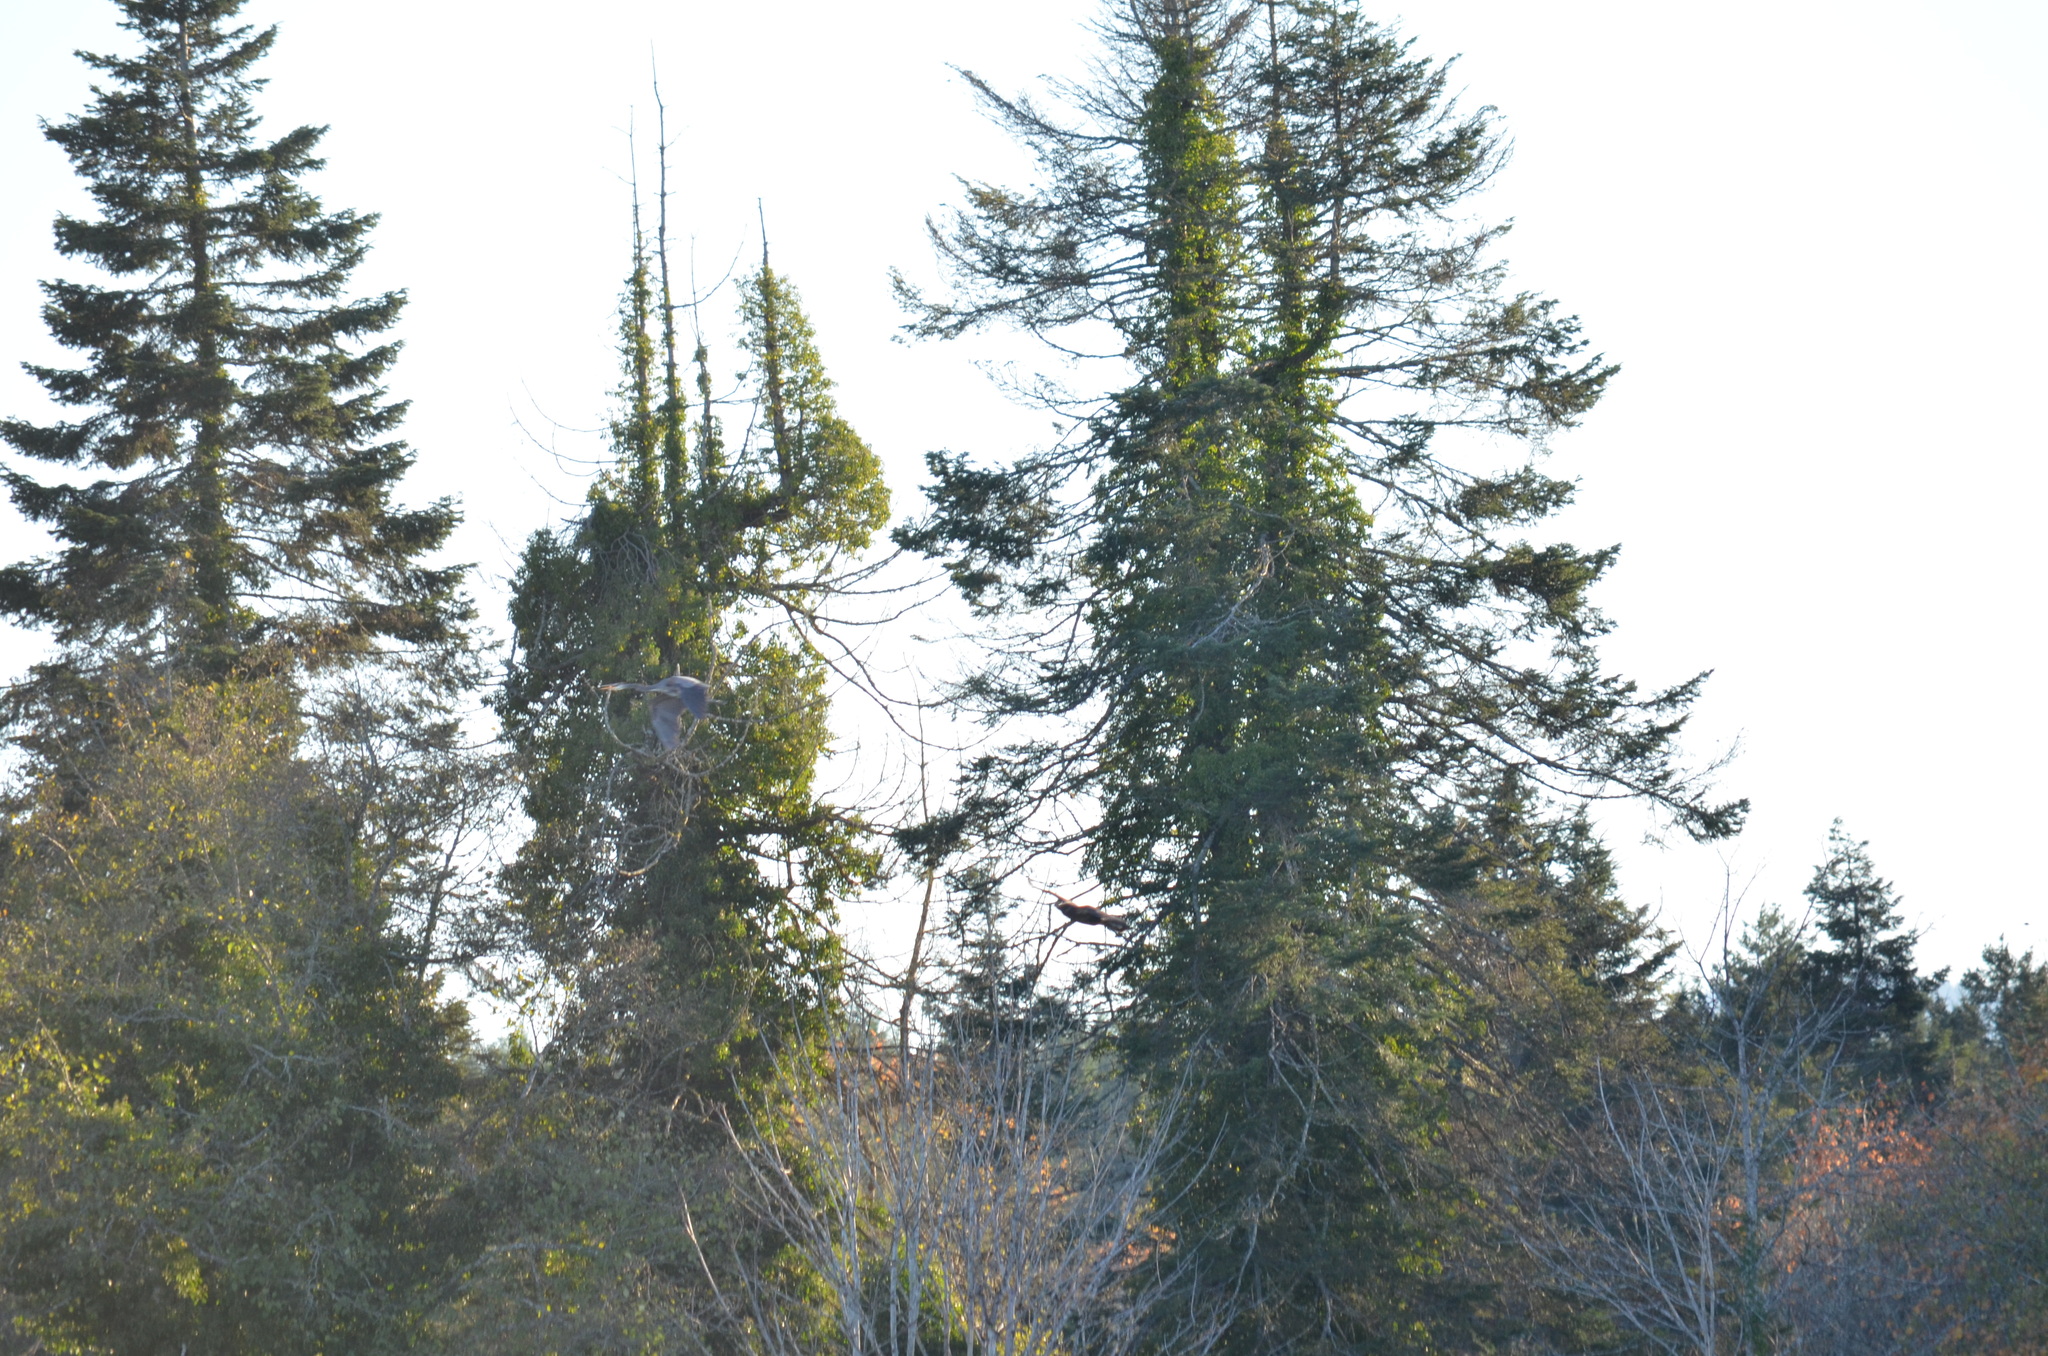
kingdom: Animalia
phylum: Chordata
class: Aves
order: Pelecaniformes
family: Ardeidae
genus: Ardea
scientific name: Ardea herodias
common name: Great blue heron
